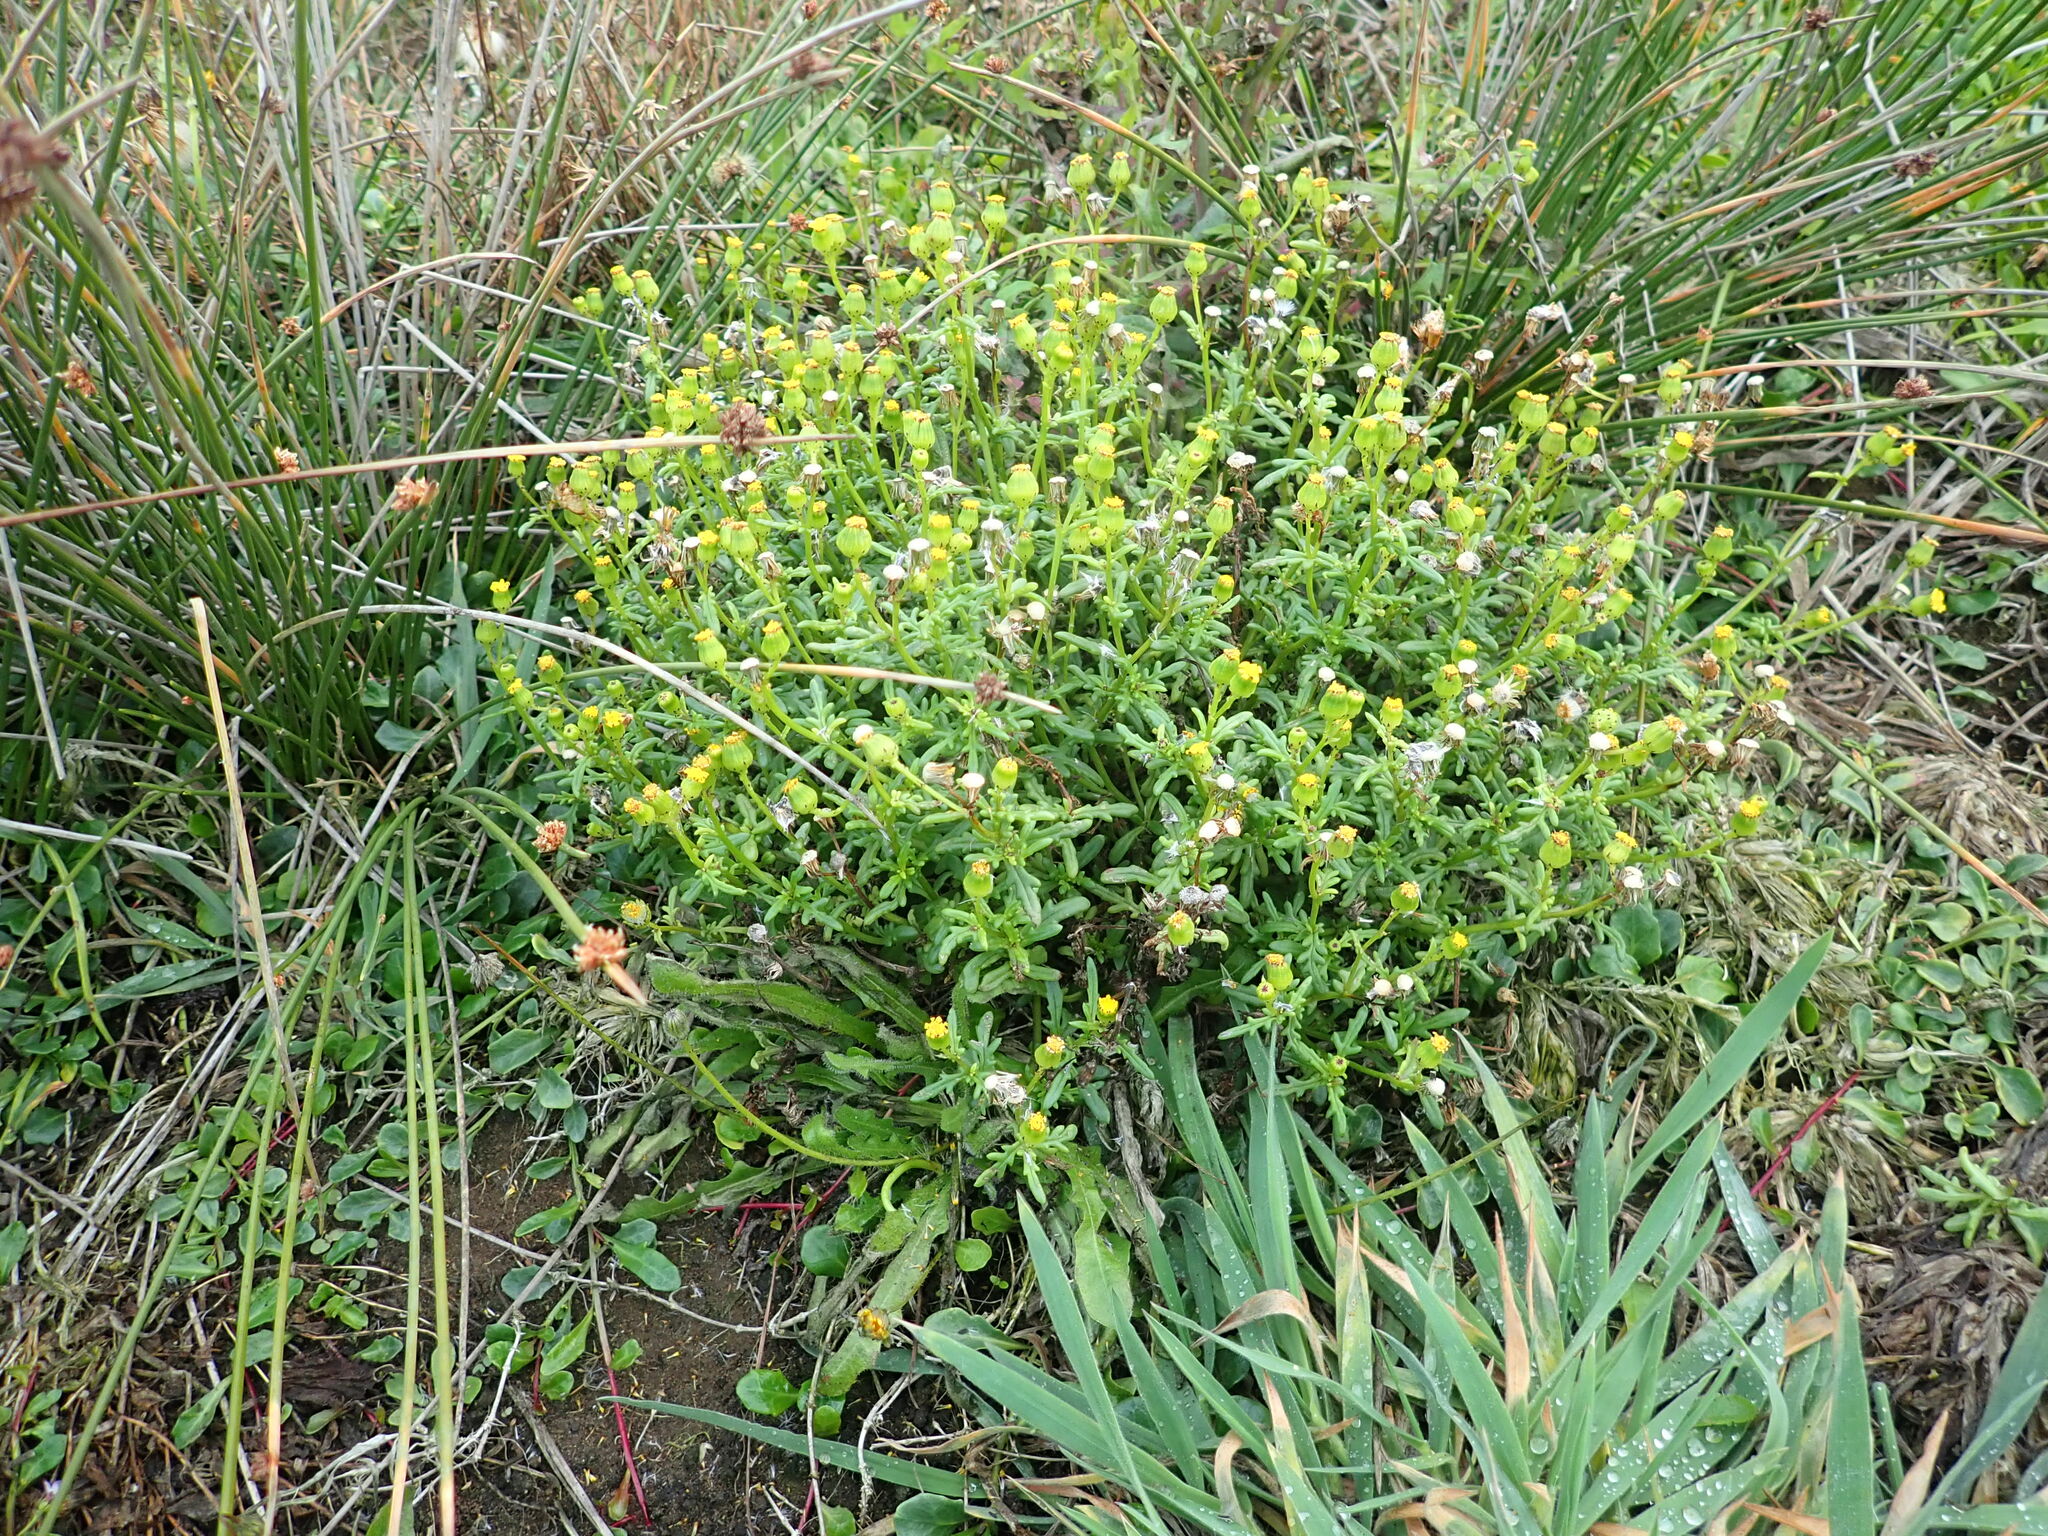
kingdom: Plantae
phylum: Tracheophyta
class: Magnoliopsida
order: Asterales
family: Asteraceae
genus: Senecio
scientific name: Senecio lautus
